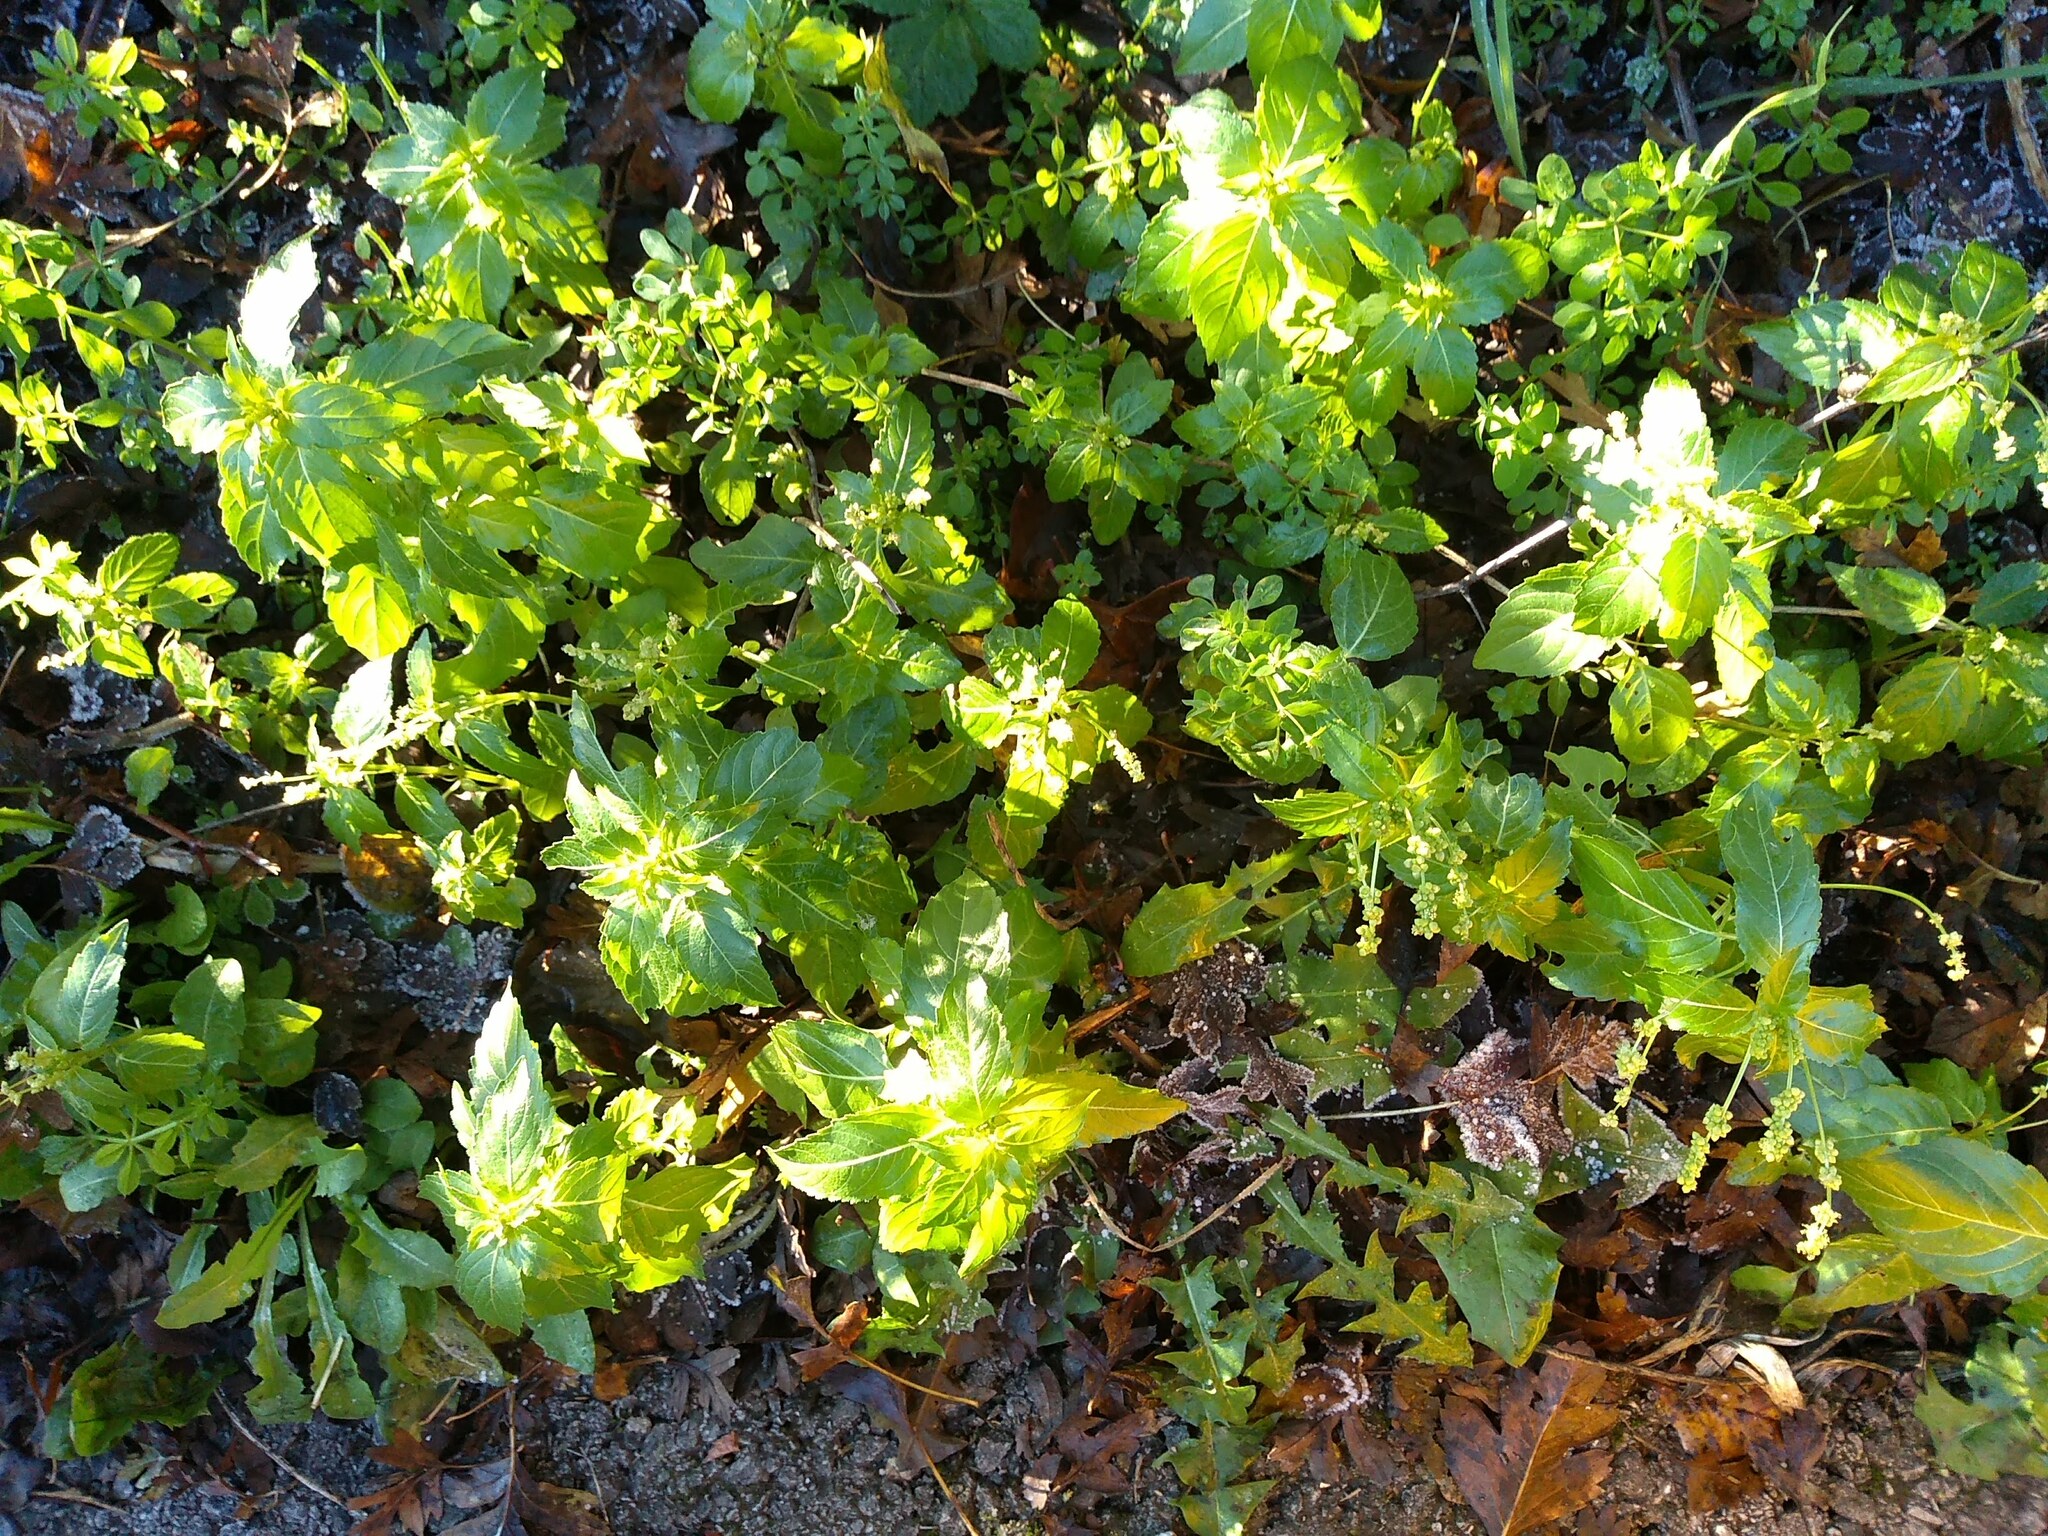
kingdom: Plantae
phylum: Tracheophyta
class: Magnoliopsida
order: Malpighiales
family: Euphorbiaceae
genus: Mercurialis
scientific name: Mercurialis annua
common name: Annual mercury
